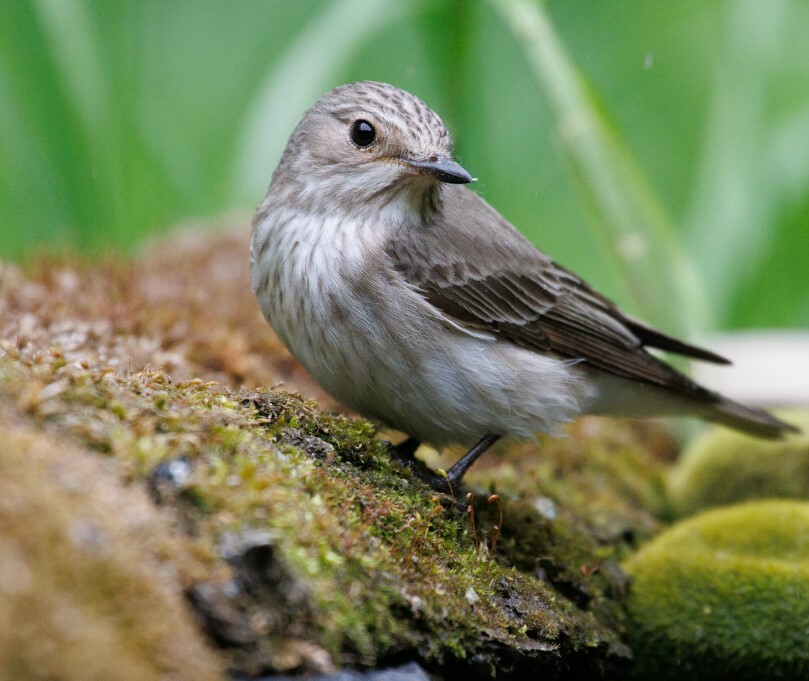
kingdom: Animalia
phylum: Chordata
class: Aves
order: Passeriformes
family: Muscicapidae
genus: Muscicapa
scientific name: Muscicapa striata
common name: Spotted flycatcher
